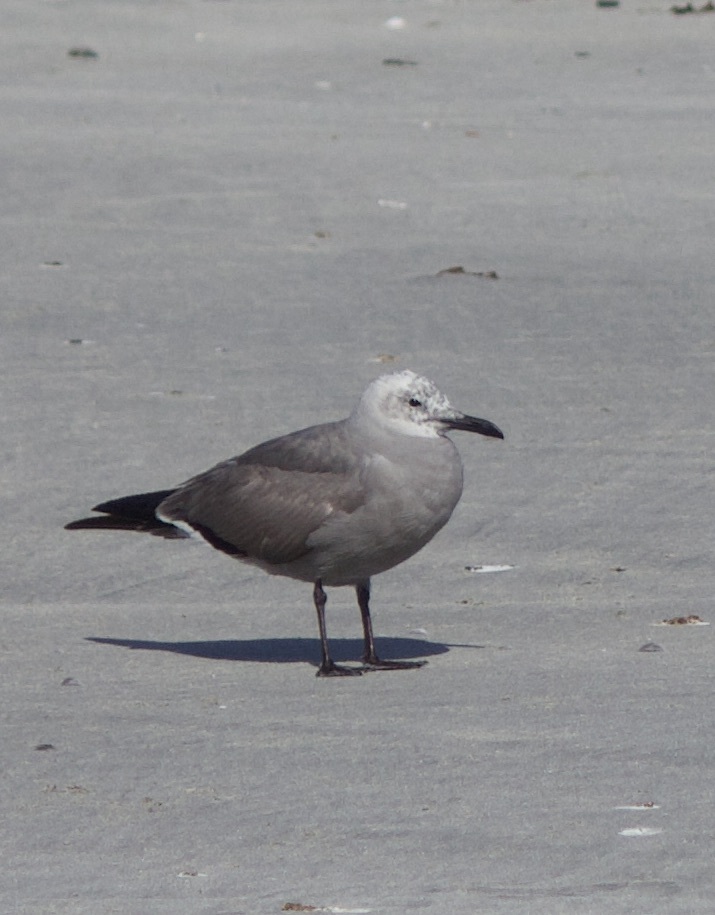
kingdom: Animalia
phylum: Chordata
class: Aves
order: Charadriiformes
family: Laridae
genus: Leucophaeus
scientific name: Leucophaeus modestus
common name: Gray gull
